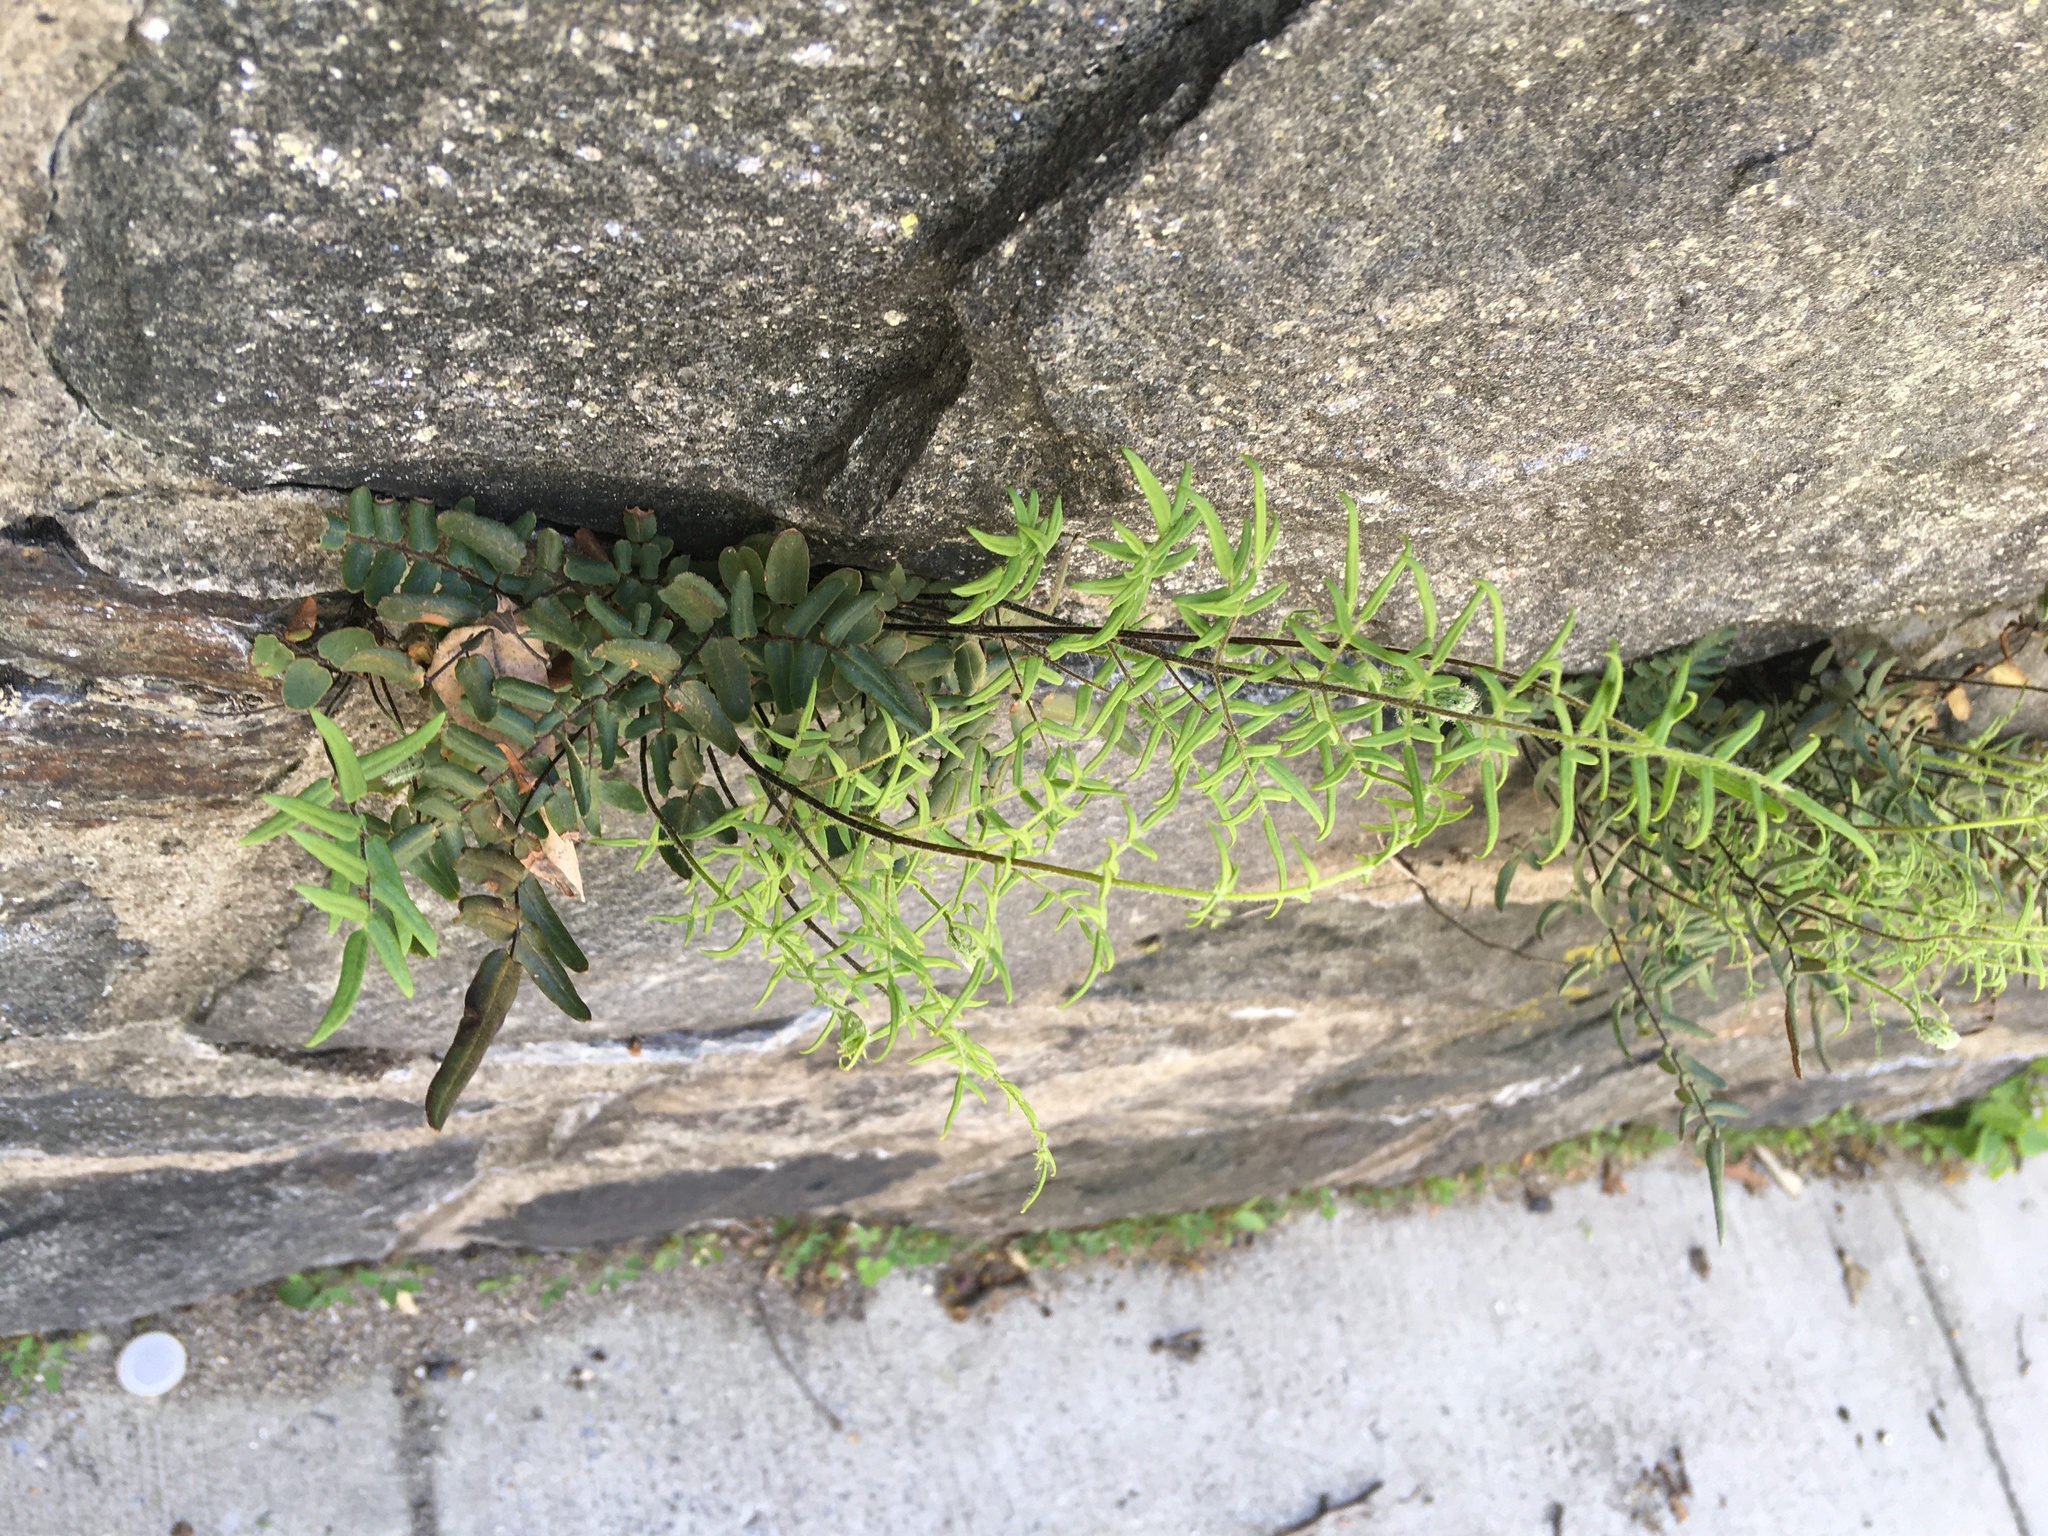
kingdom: Plantae
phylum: Tracheophyta
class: Polypodiopsida
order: Polypodiales
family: Pteridaceae
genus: Pellaea
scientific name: Pellaea atropurpurea
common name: Hairy cliffbrake
